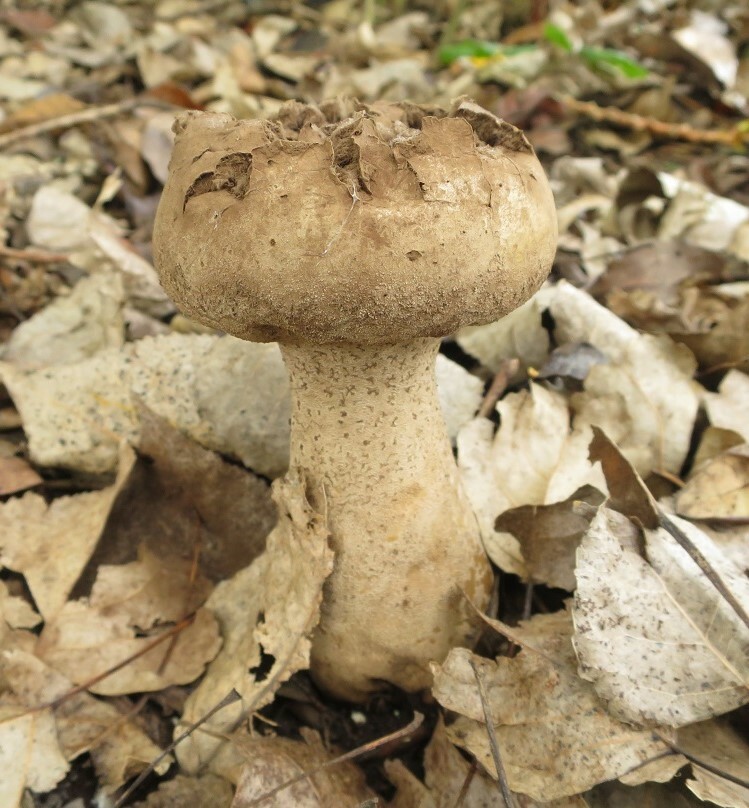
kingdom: Fungi
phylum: Basidiomycota
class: Agaricomycetes
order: Agaricales
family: Lycoperdaceae
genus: Lycoperdon
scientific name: Lycoperdon excipuliforme
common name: Pestle puffball
